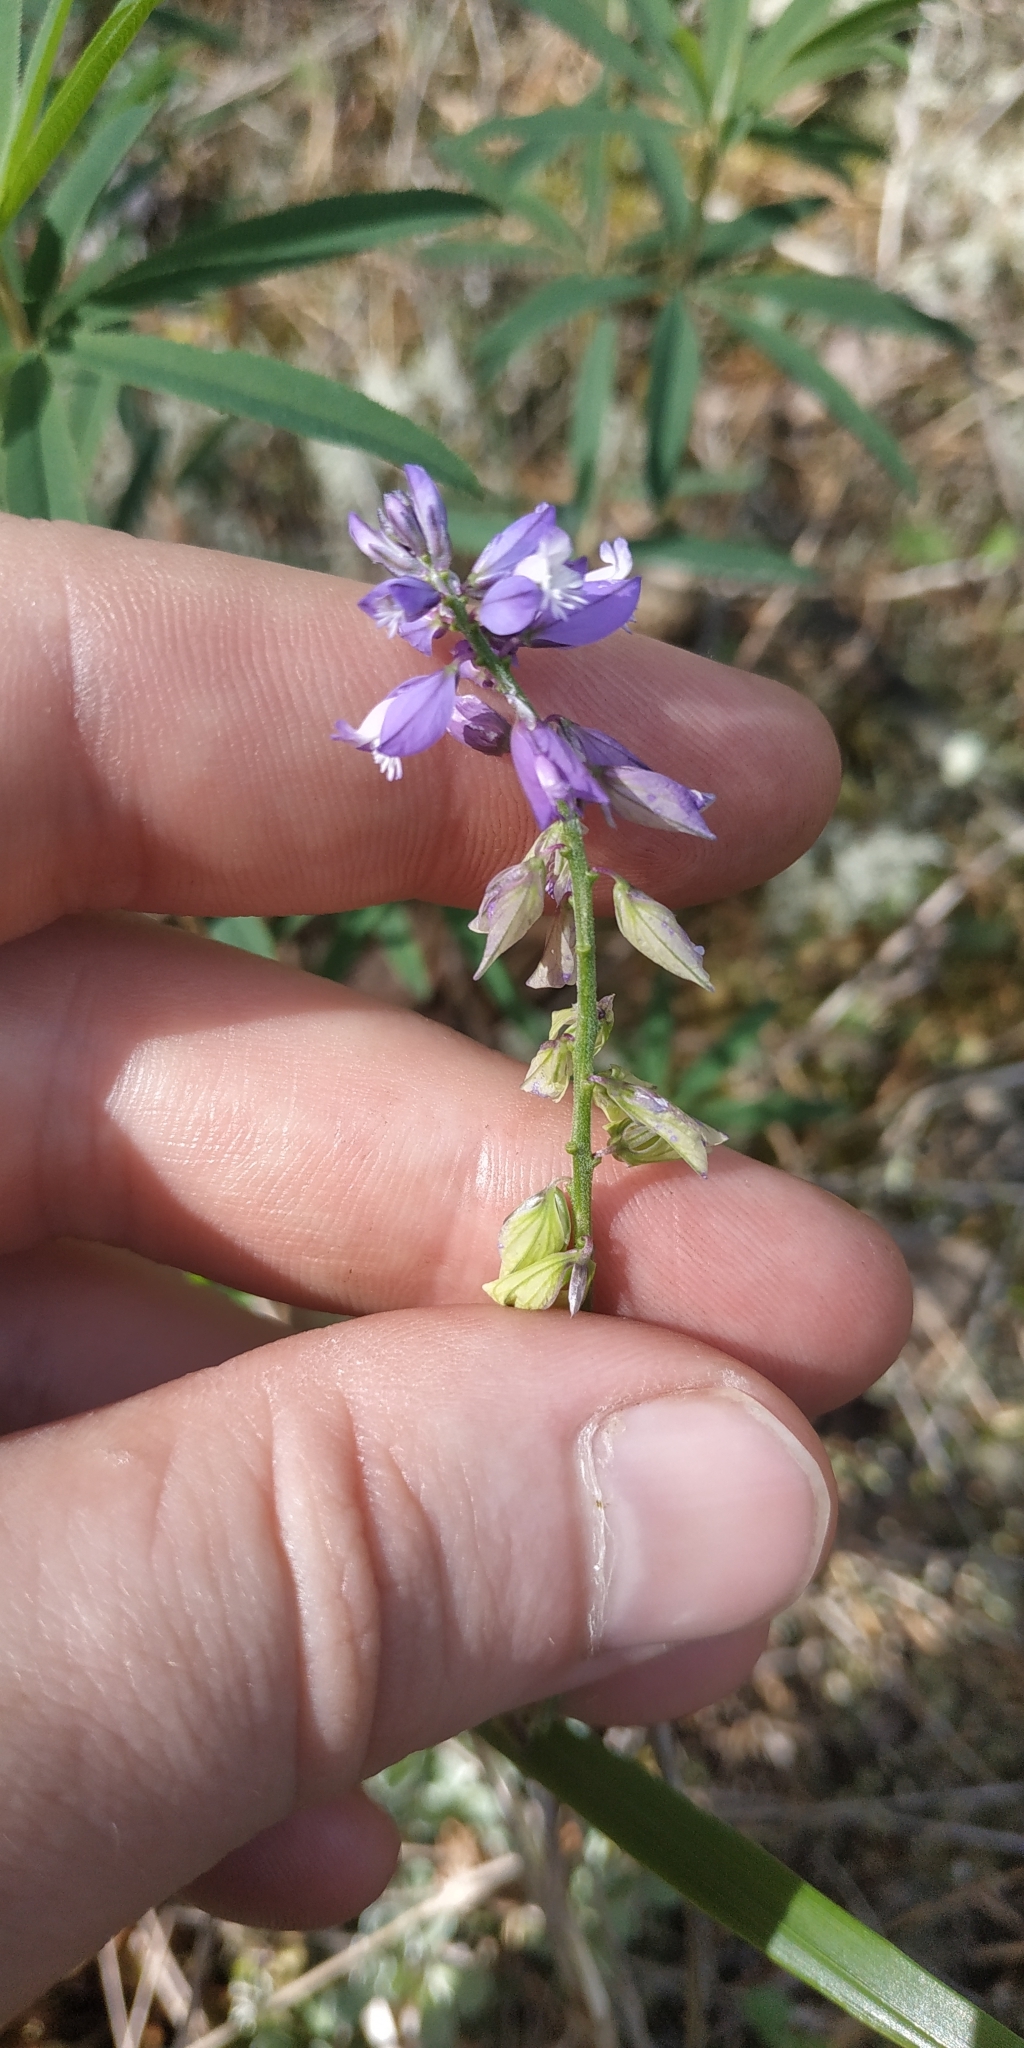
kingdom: Plantae
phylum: Tracheophyta
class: Magnoliopsida
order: Fabales
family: Polygalaceae
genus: Polygala
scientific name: Polygala comosa
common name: Tufted milkwort
